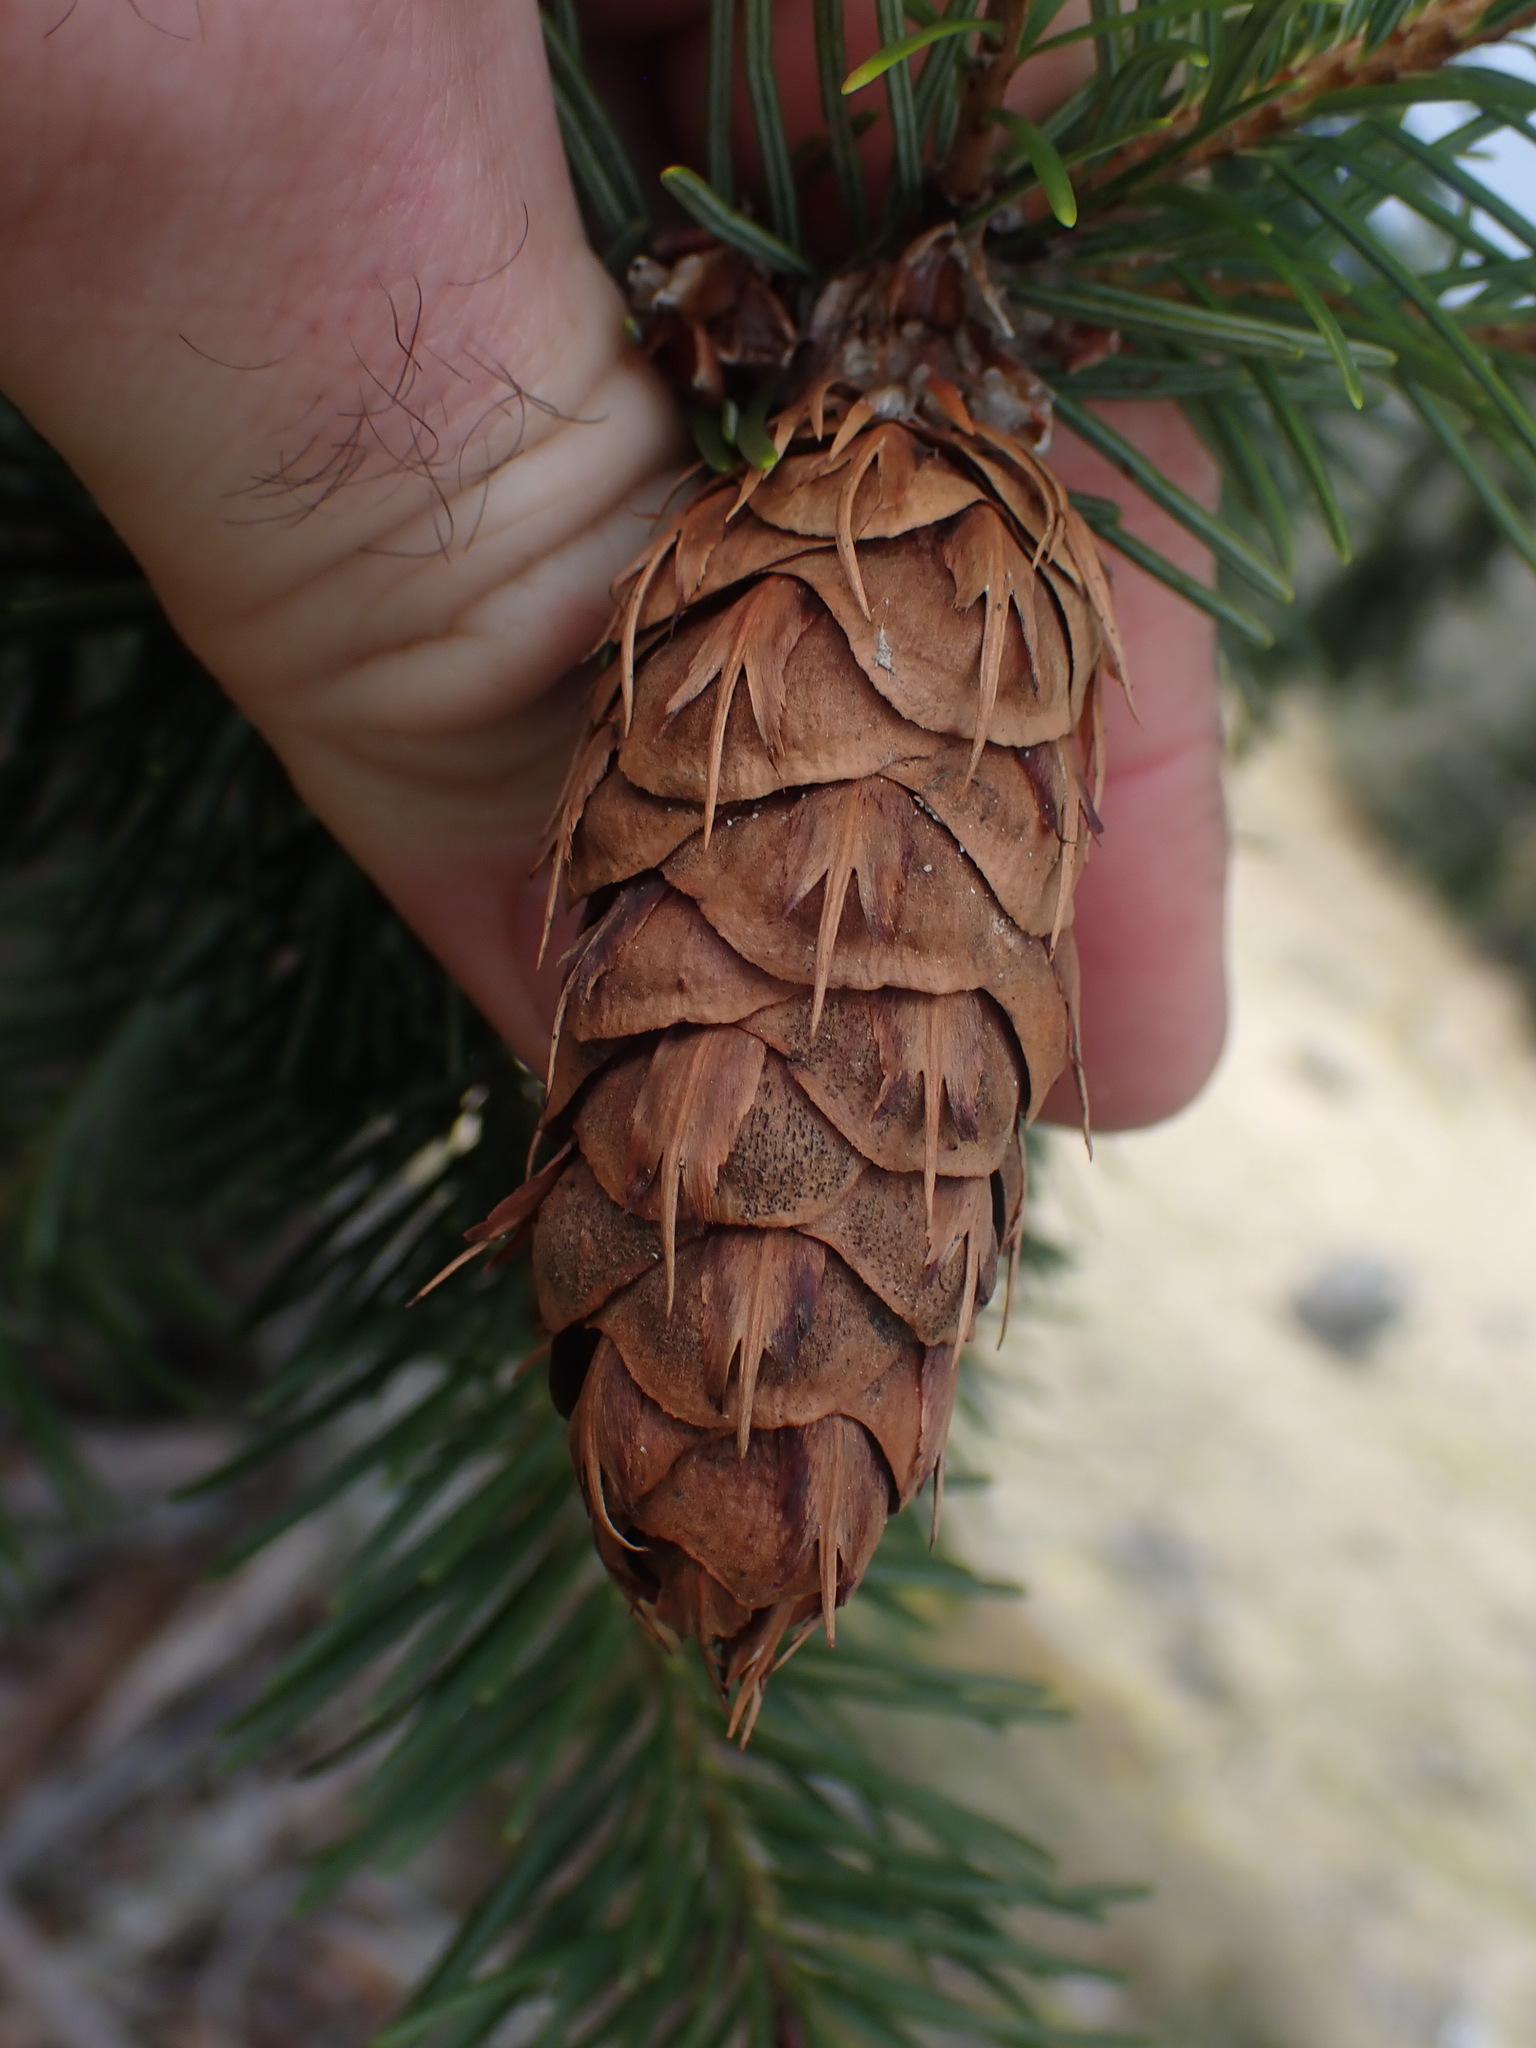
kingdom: Plantae
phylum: Tracheophyta
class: Pinopsida
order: Pinales
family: Pinaceae
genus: Pseudotsuga
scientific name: Pseudotsuga menziesii
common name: Douglas fir
